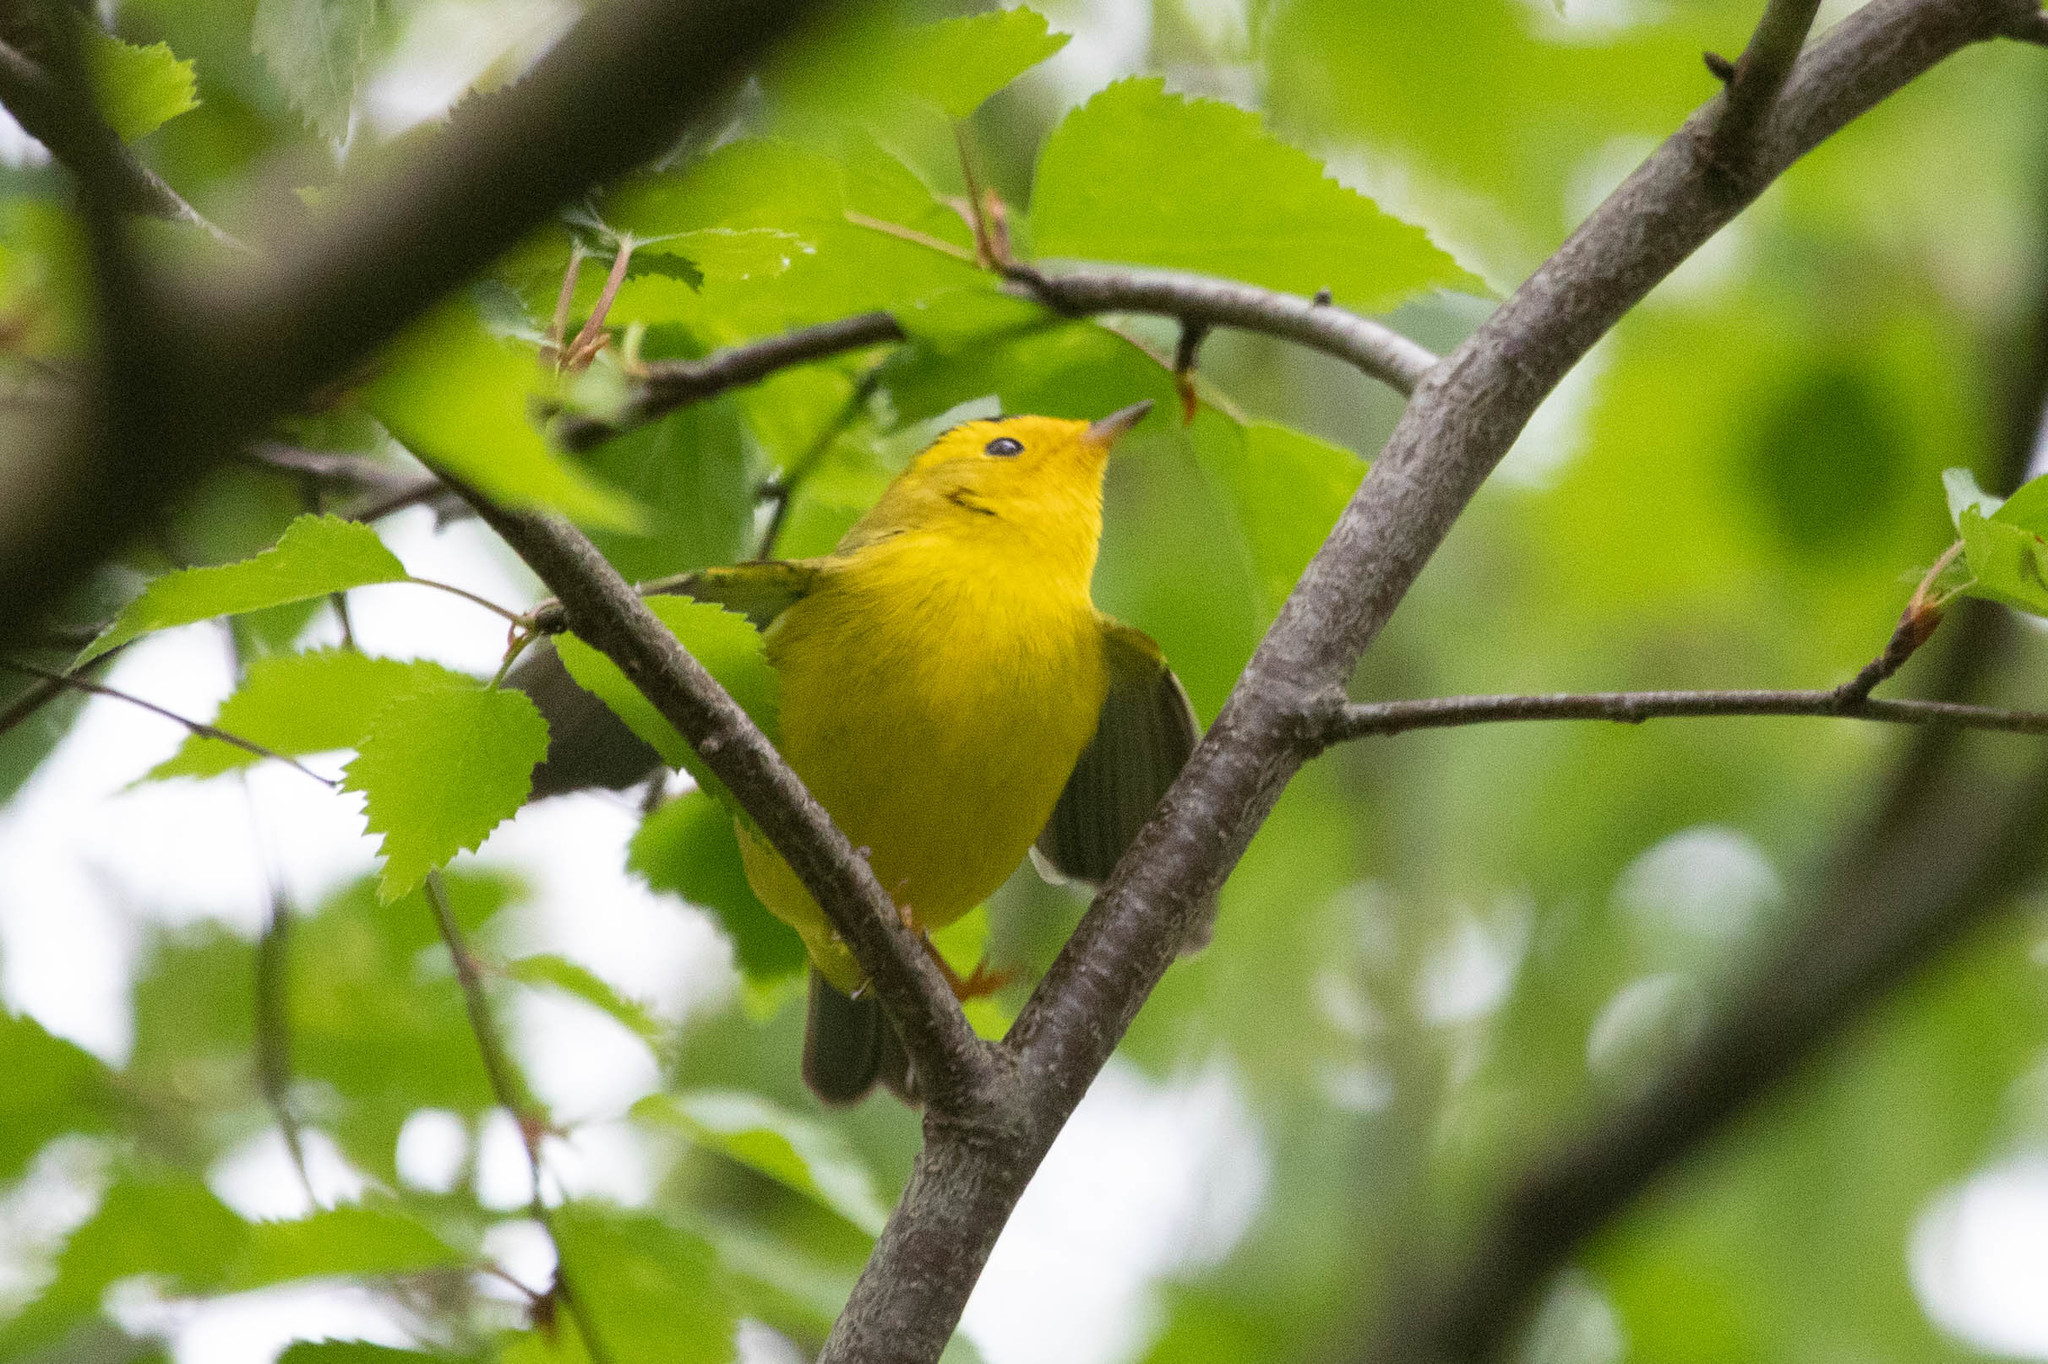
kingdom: Animalia
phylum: Chordata
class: Aves
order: Passeriformes
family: Parulidae
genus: Cardellina
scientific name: Cardellina pusilla
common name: Wilson's warbler
